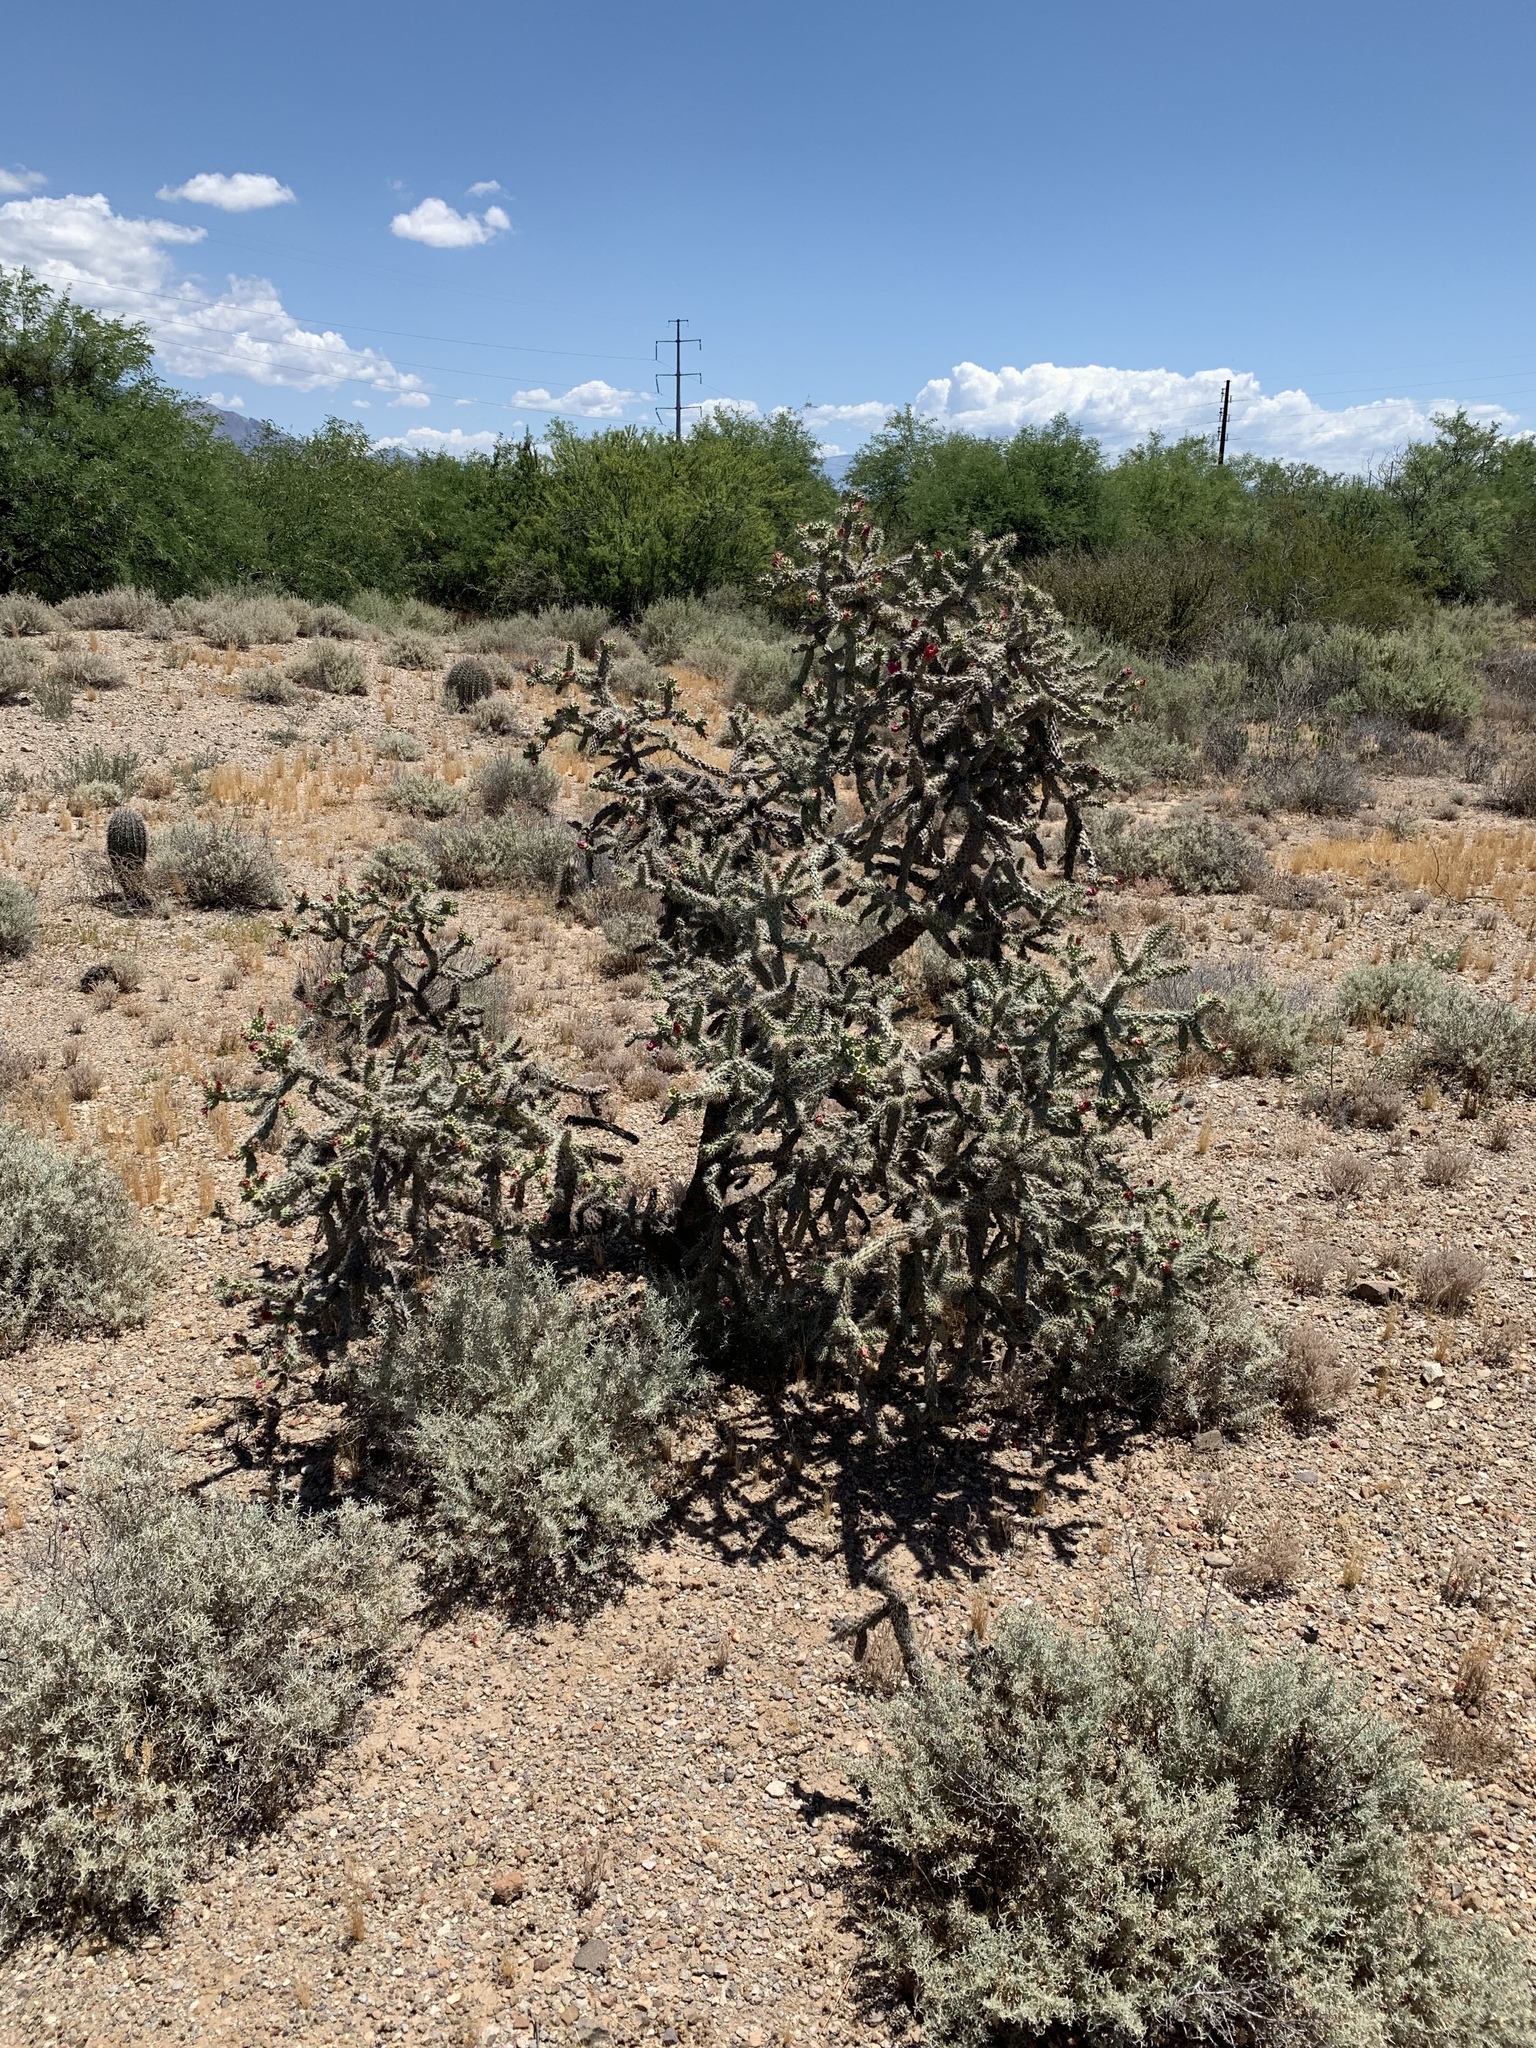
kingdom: Plantae
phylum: Tracheophyta
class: Magnoliopsida
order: Caryophyllales
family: Cactaceae
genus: Cylindropuntia
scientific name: Cylindropuntia thurberi
